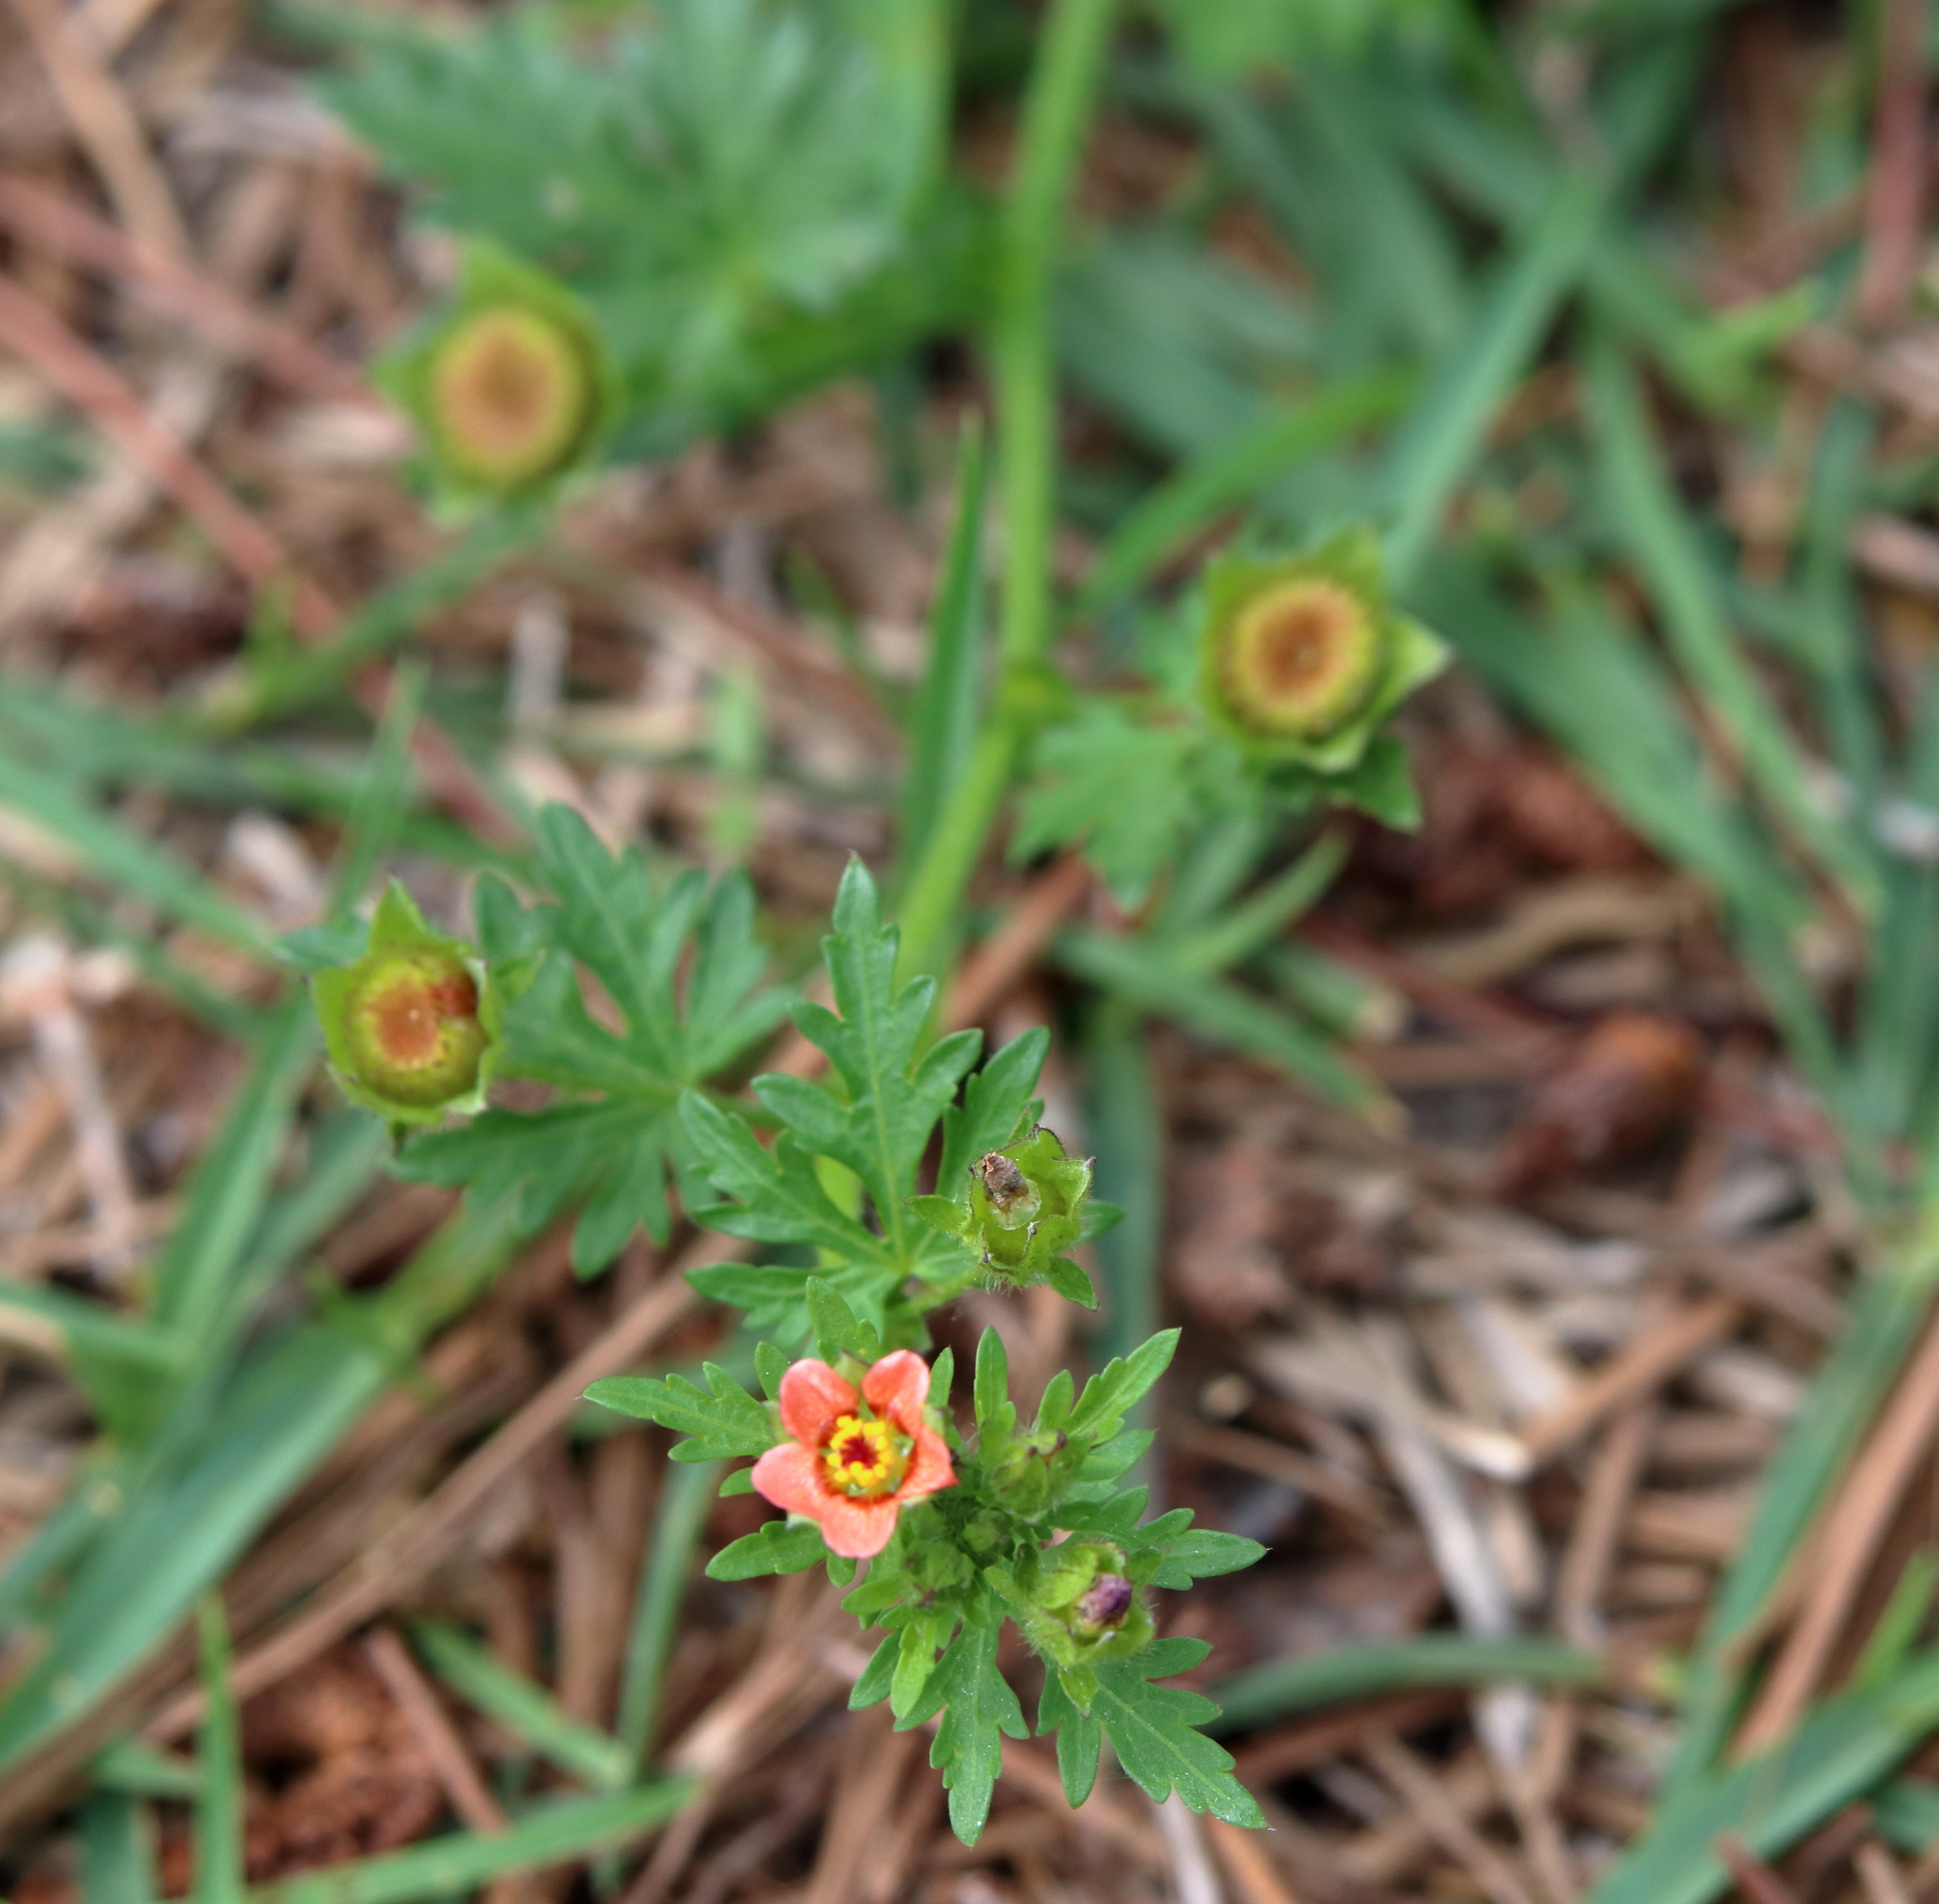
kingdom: Plantae
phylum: Tracheophyta
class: Magnoliopsida
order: Malvales
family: Malvaceae
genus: Modiola
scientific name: Modiola caroliniana
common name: Carolina bristlemallow
